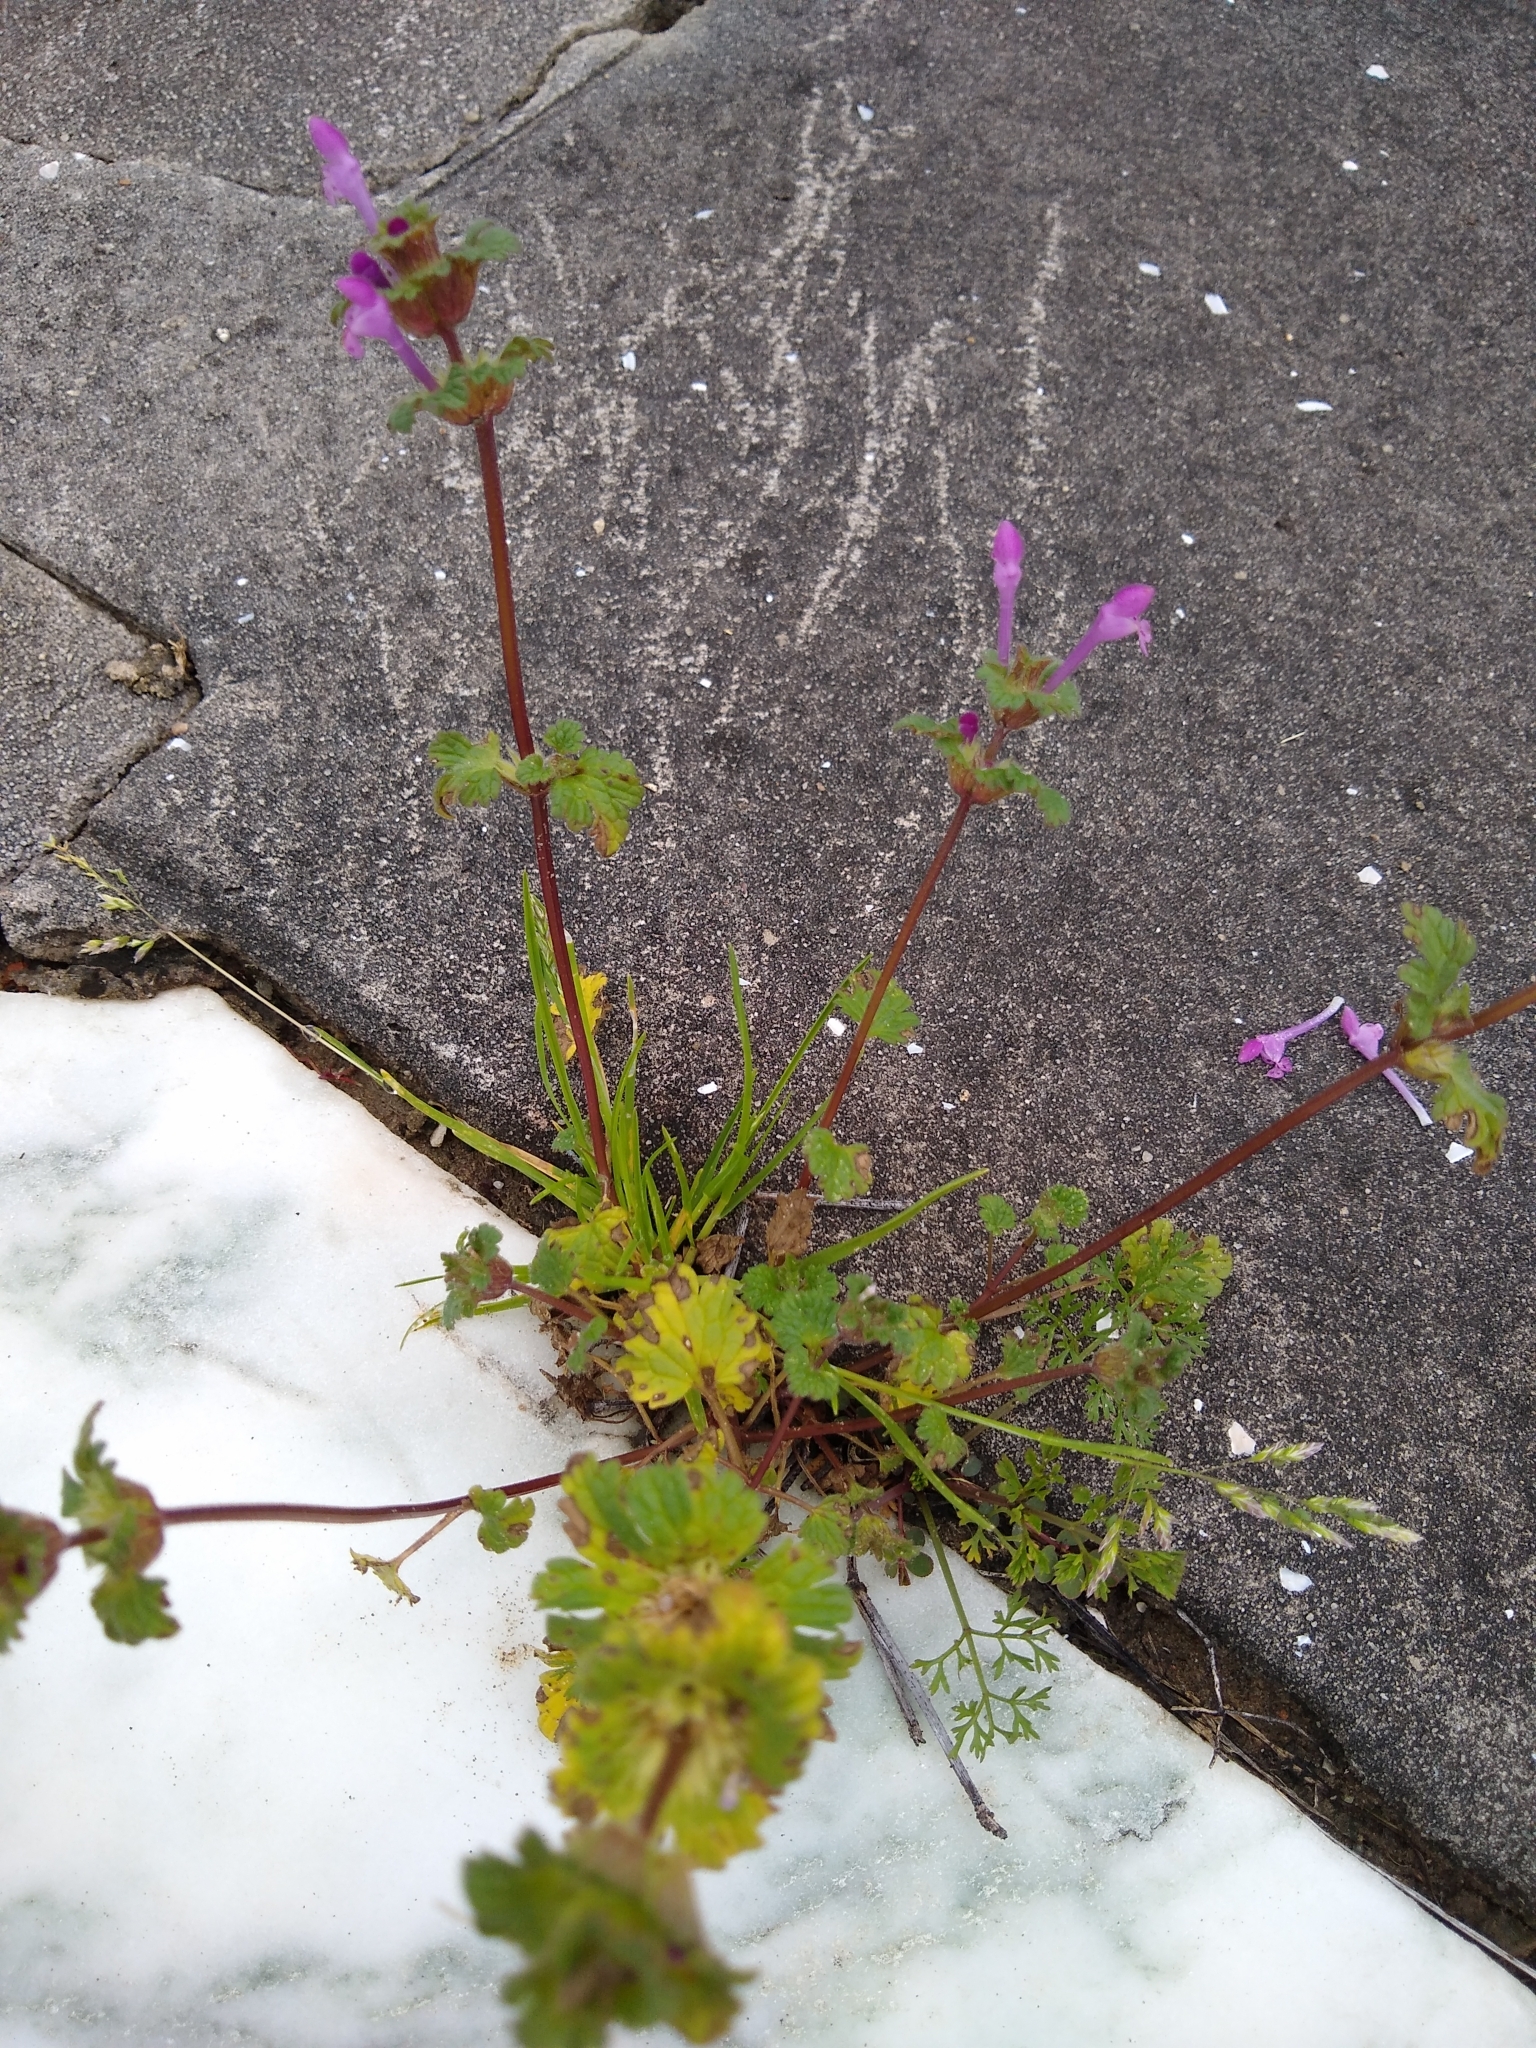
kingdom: Plantae
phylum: Tracheophyta
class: Magnoliopsida
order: Lamiales
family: Lamiaceae
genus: Lamium
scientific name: Lamium amplexicaule
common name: Henbit dead-nettle
